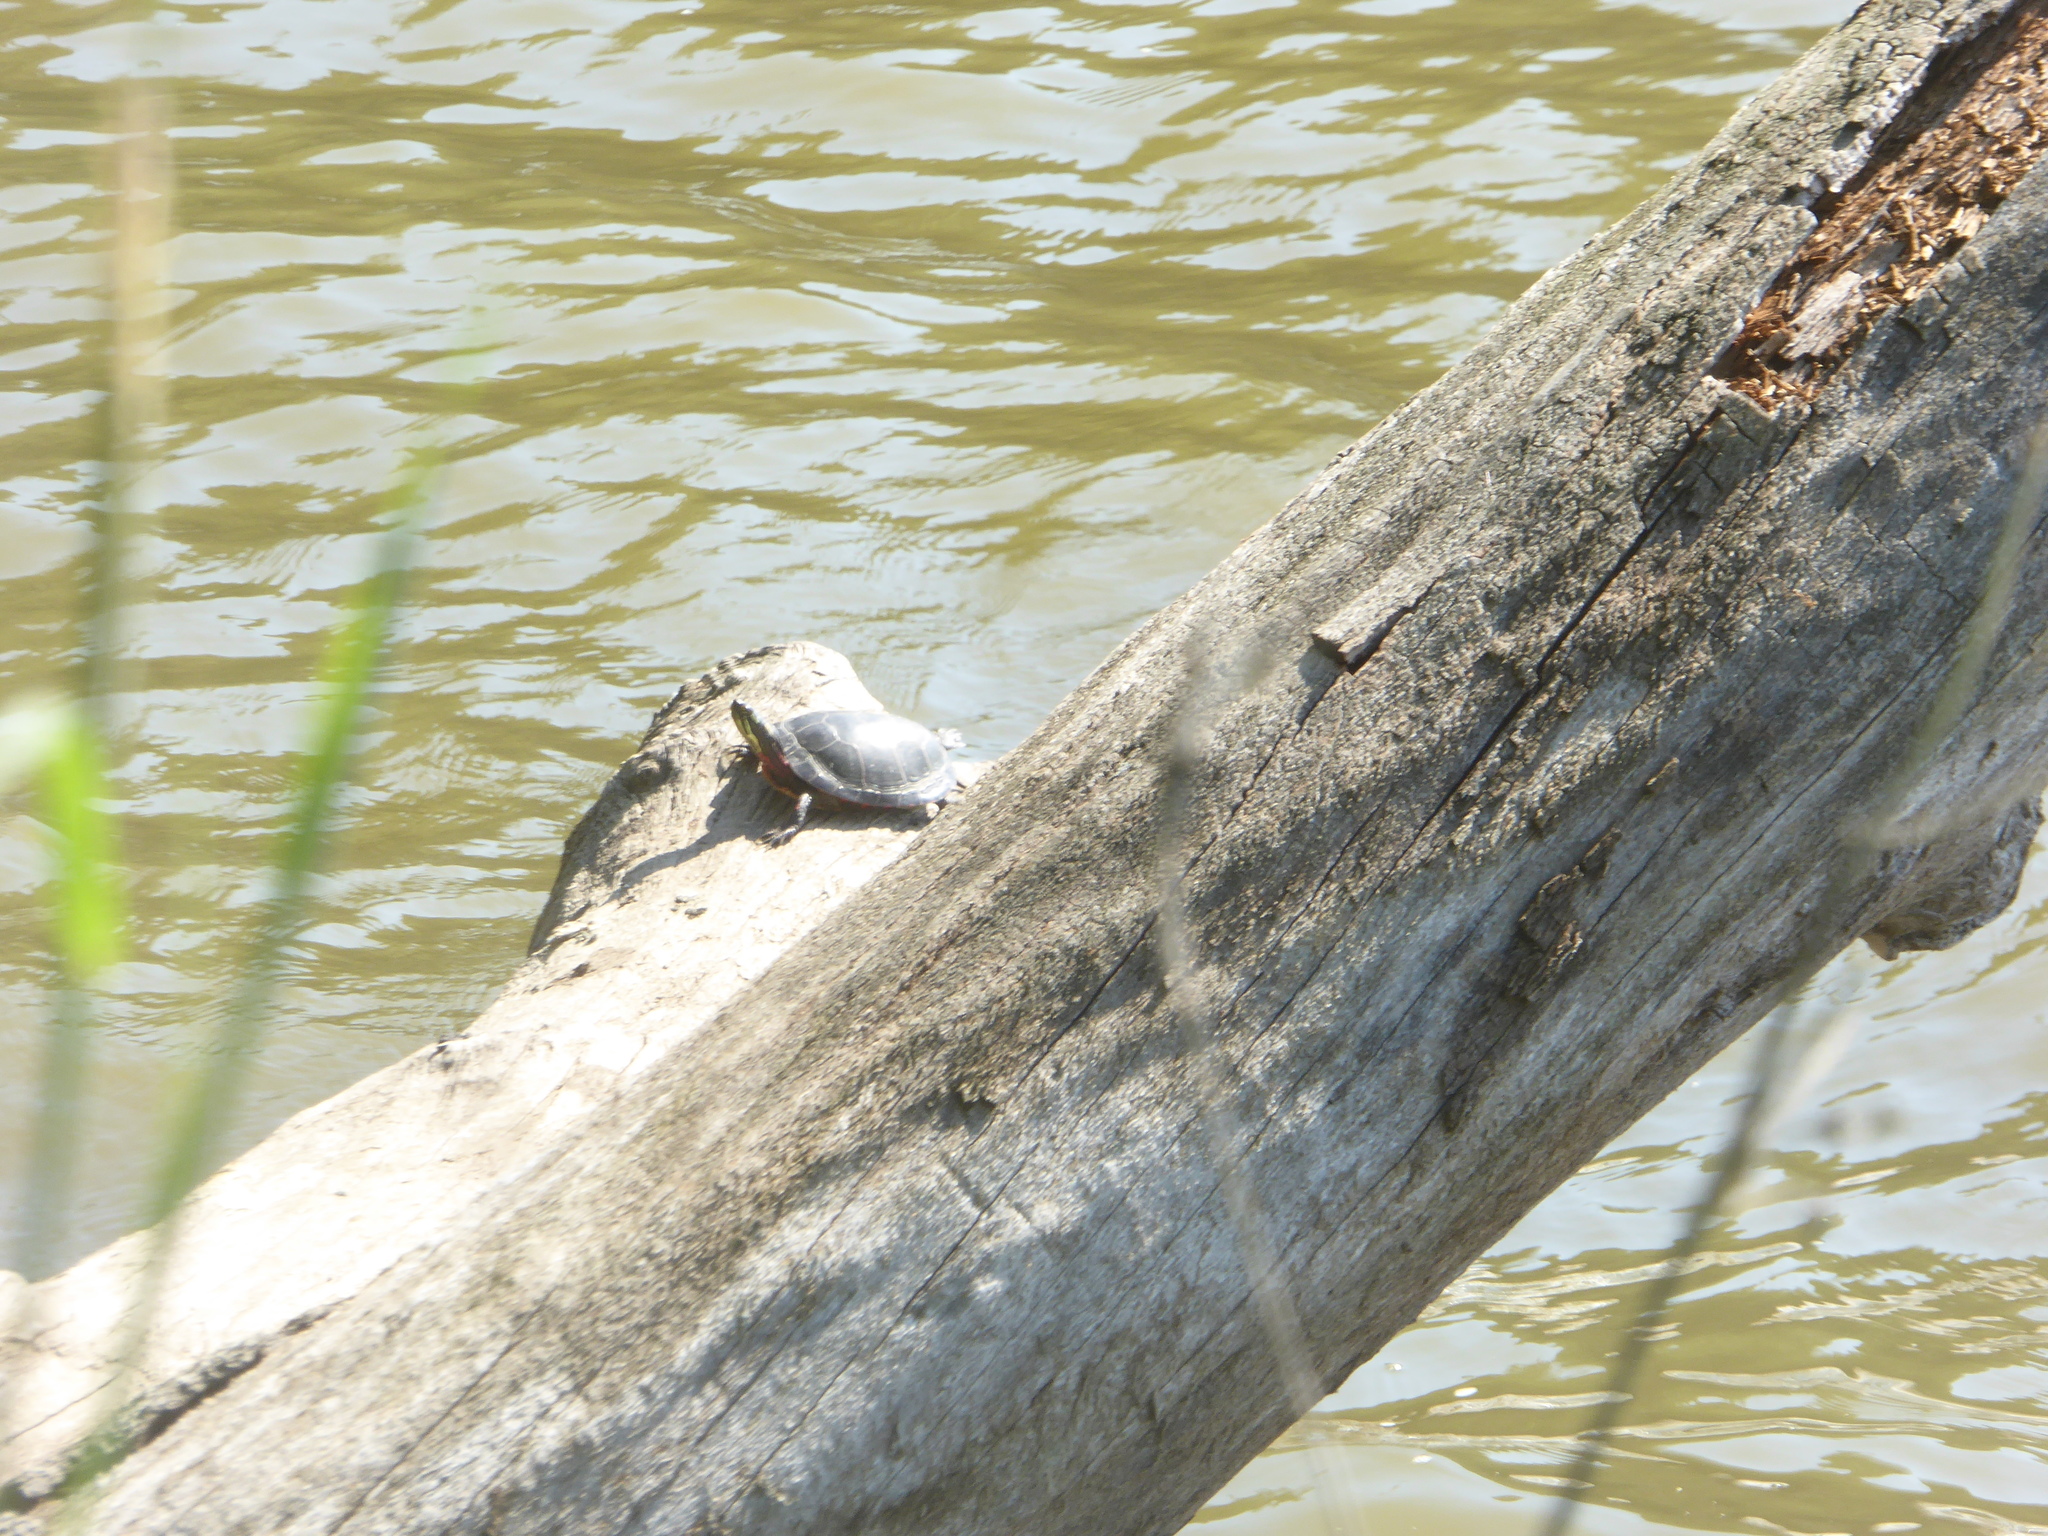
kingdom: Animalia
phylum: Chordata
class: Testudines
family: Emydidae
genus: Chrysemys
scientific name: Chrysemys picta
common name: Painted turtle
